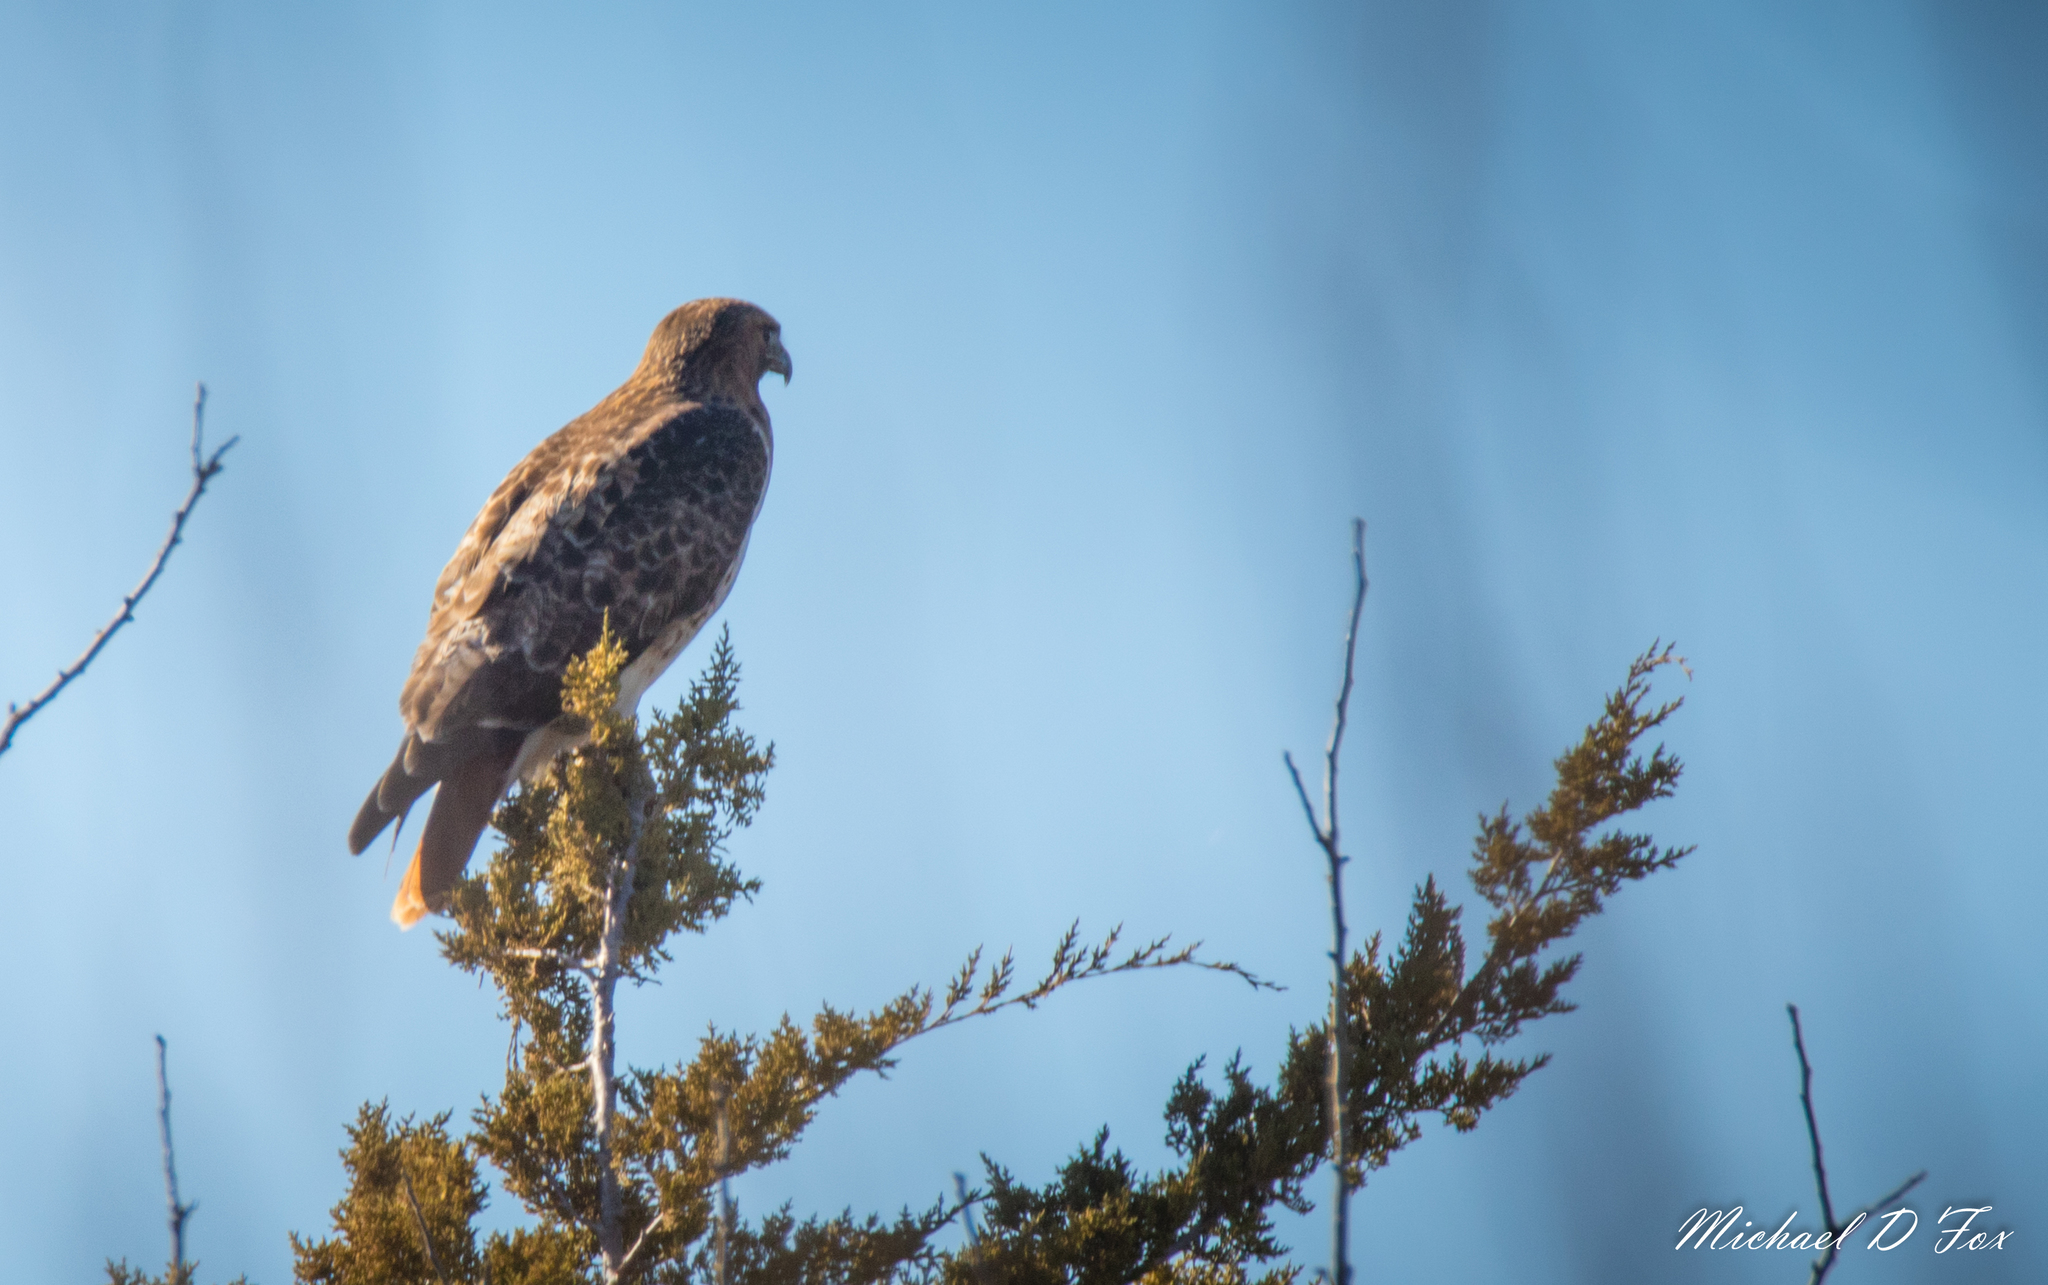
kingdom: Animalia
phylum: Chordata
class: Aves
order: Accipitriformes
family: Accipitridae
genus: Buteo
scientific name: Buteo jamaicensis
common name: Red-tailed hawk
